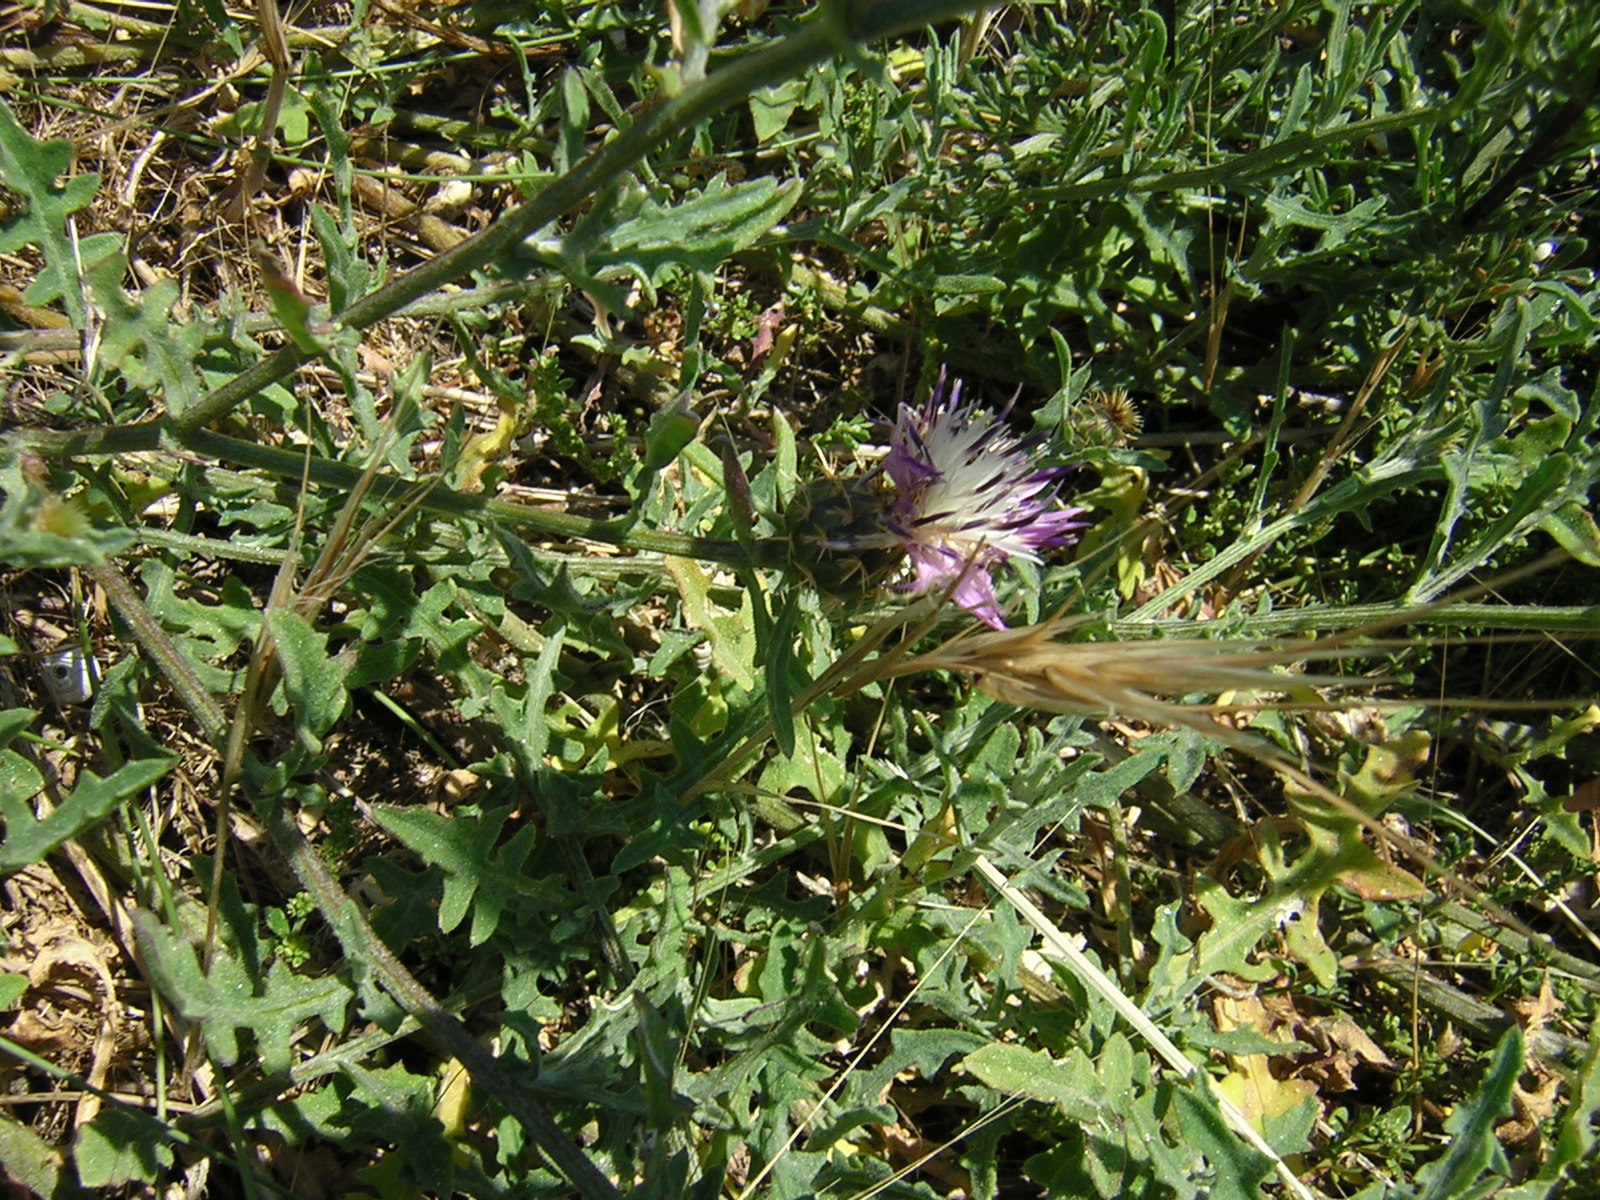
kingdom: Plantae
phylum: Tracheophyta
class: Magnoliopsida
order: Asterales
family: Asteraceae
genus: Centaurea
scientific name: Centaurea aspera
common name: Rough star-thistle
